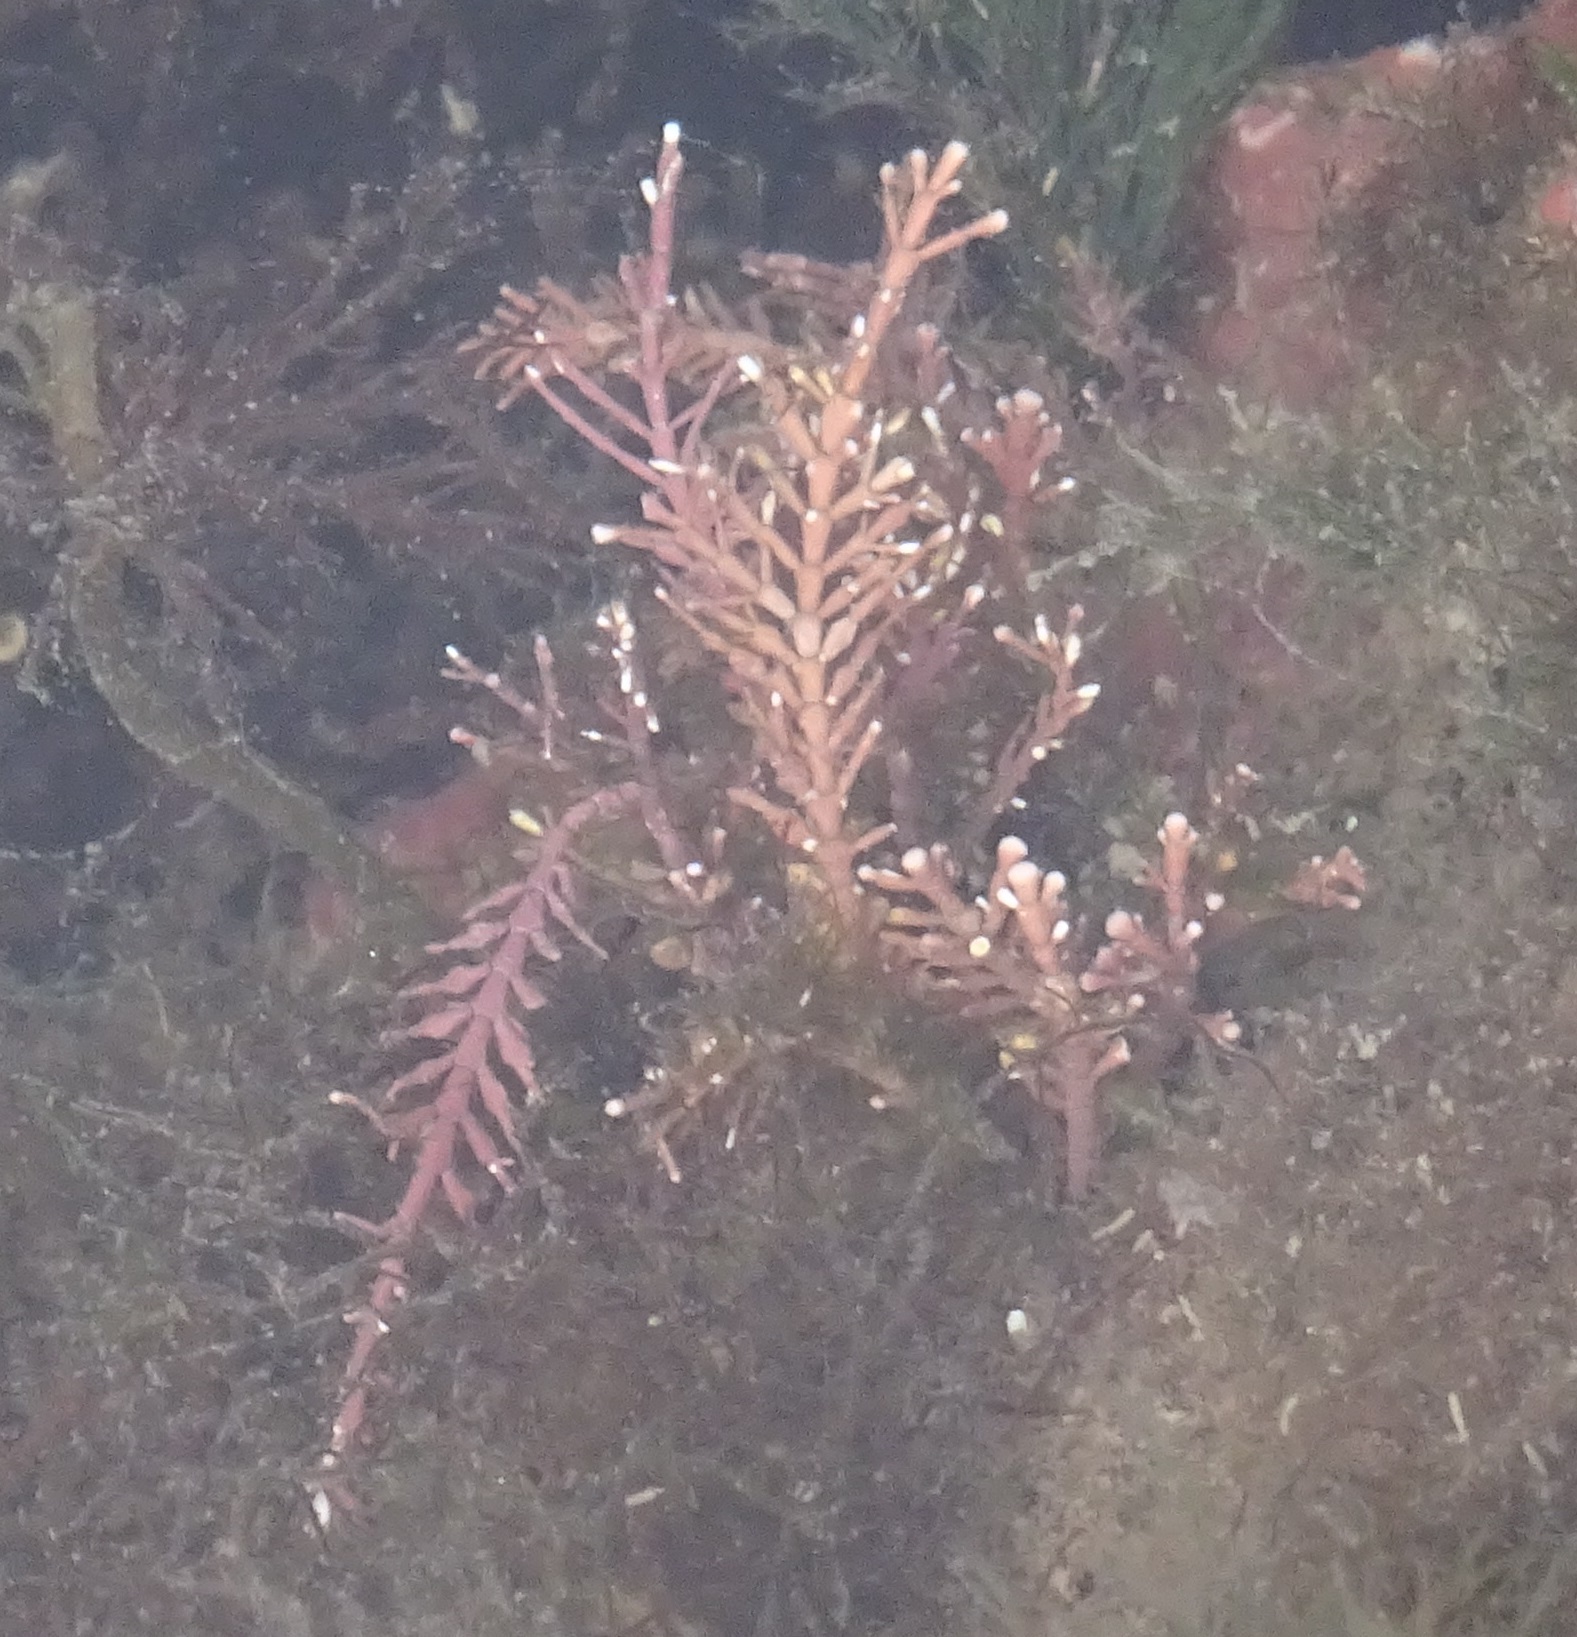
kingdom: Plantae
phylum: Rhodophyta
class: Florideophyceae
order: Corallinales
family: Corallinaceae
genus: Corallina
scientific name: Corallina officinalis
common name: Coral weed
